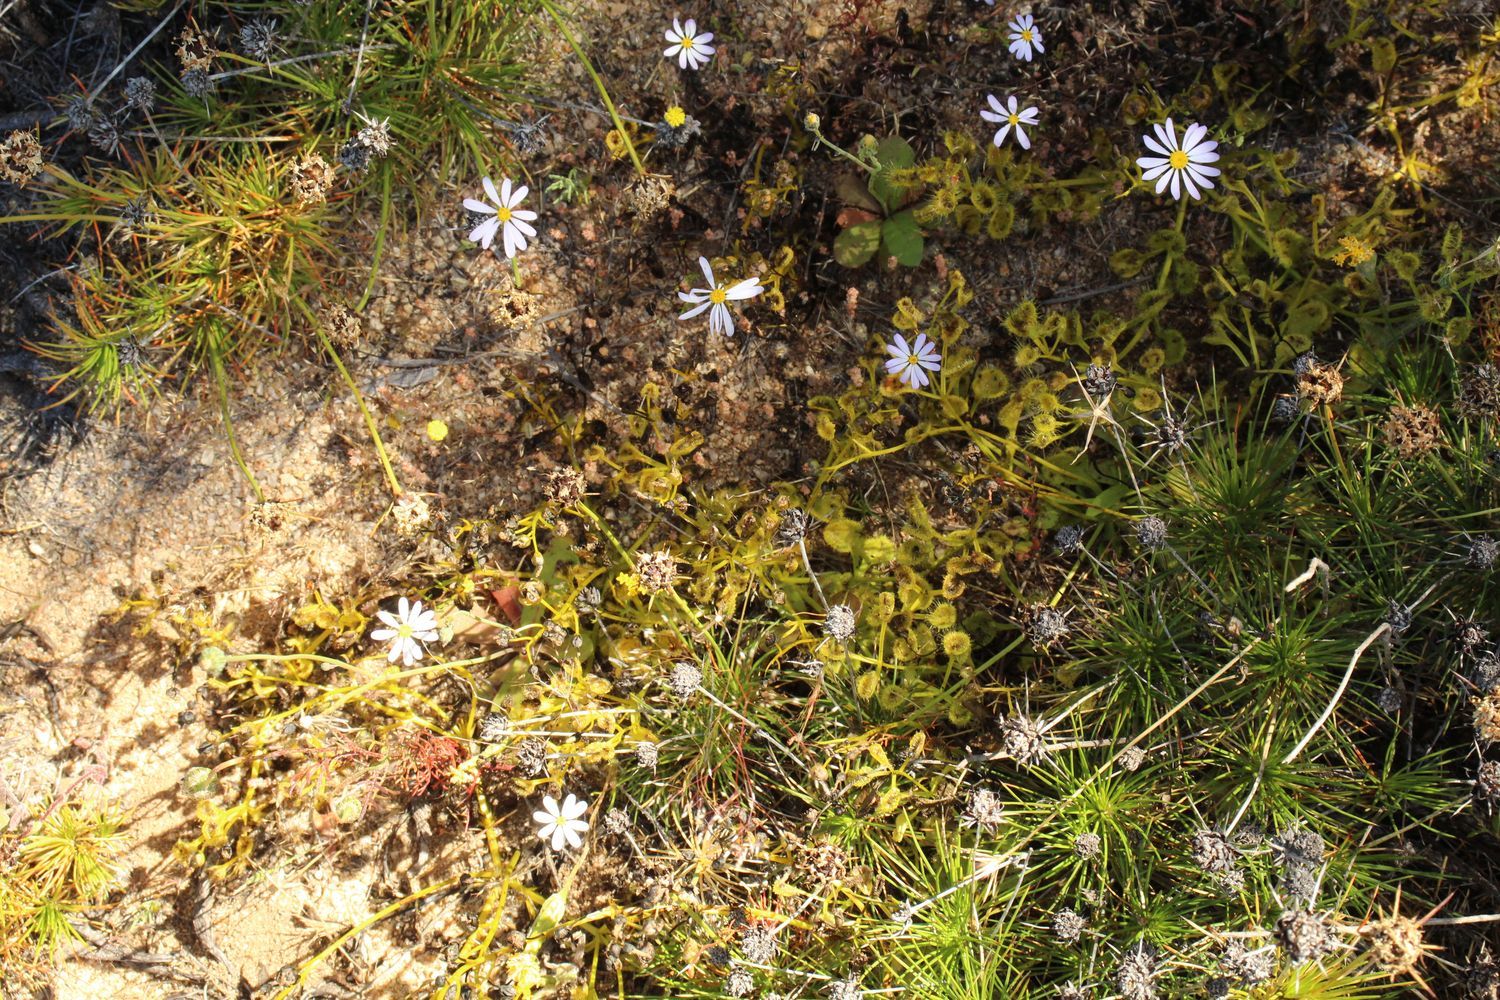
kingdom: Plantae
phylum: Tracheophyta
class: Magnoliopsida
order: Caryophyllales
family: Droseraceae
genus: Drosera
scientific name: Drosera rupicola
